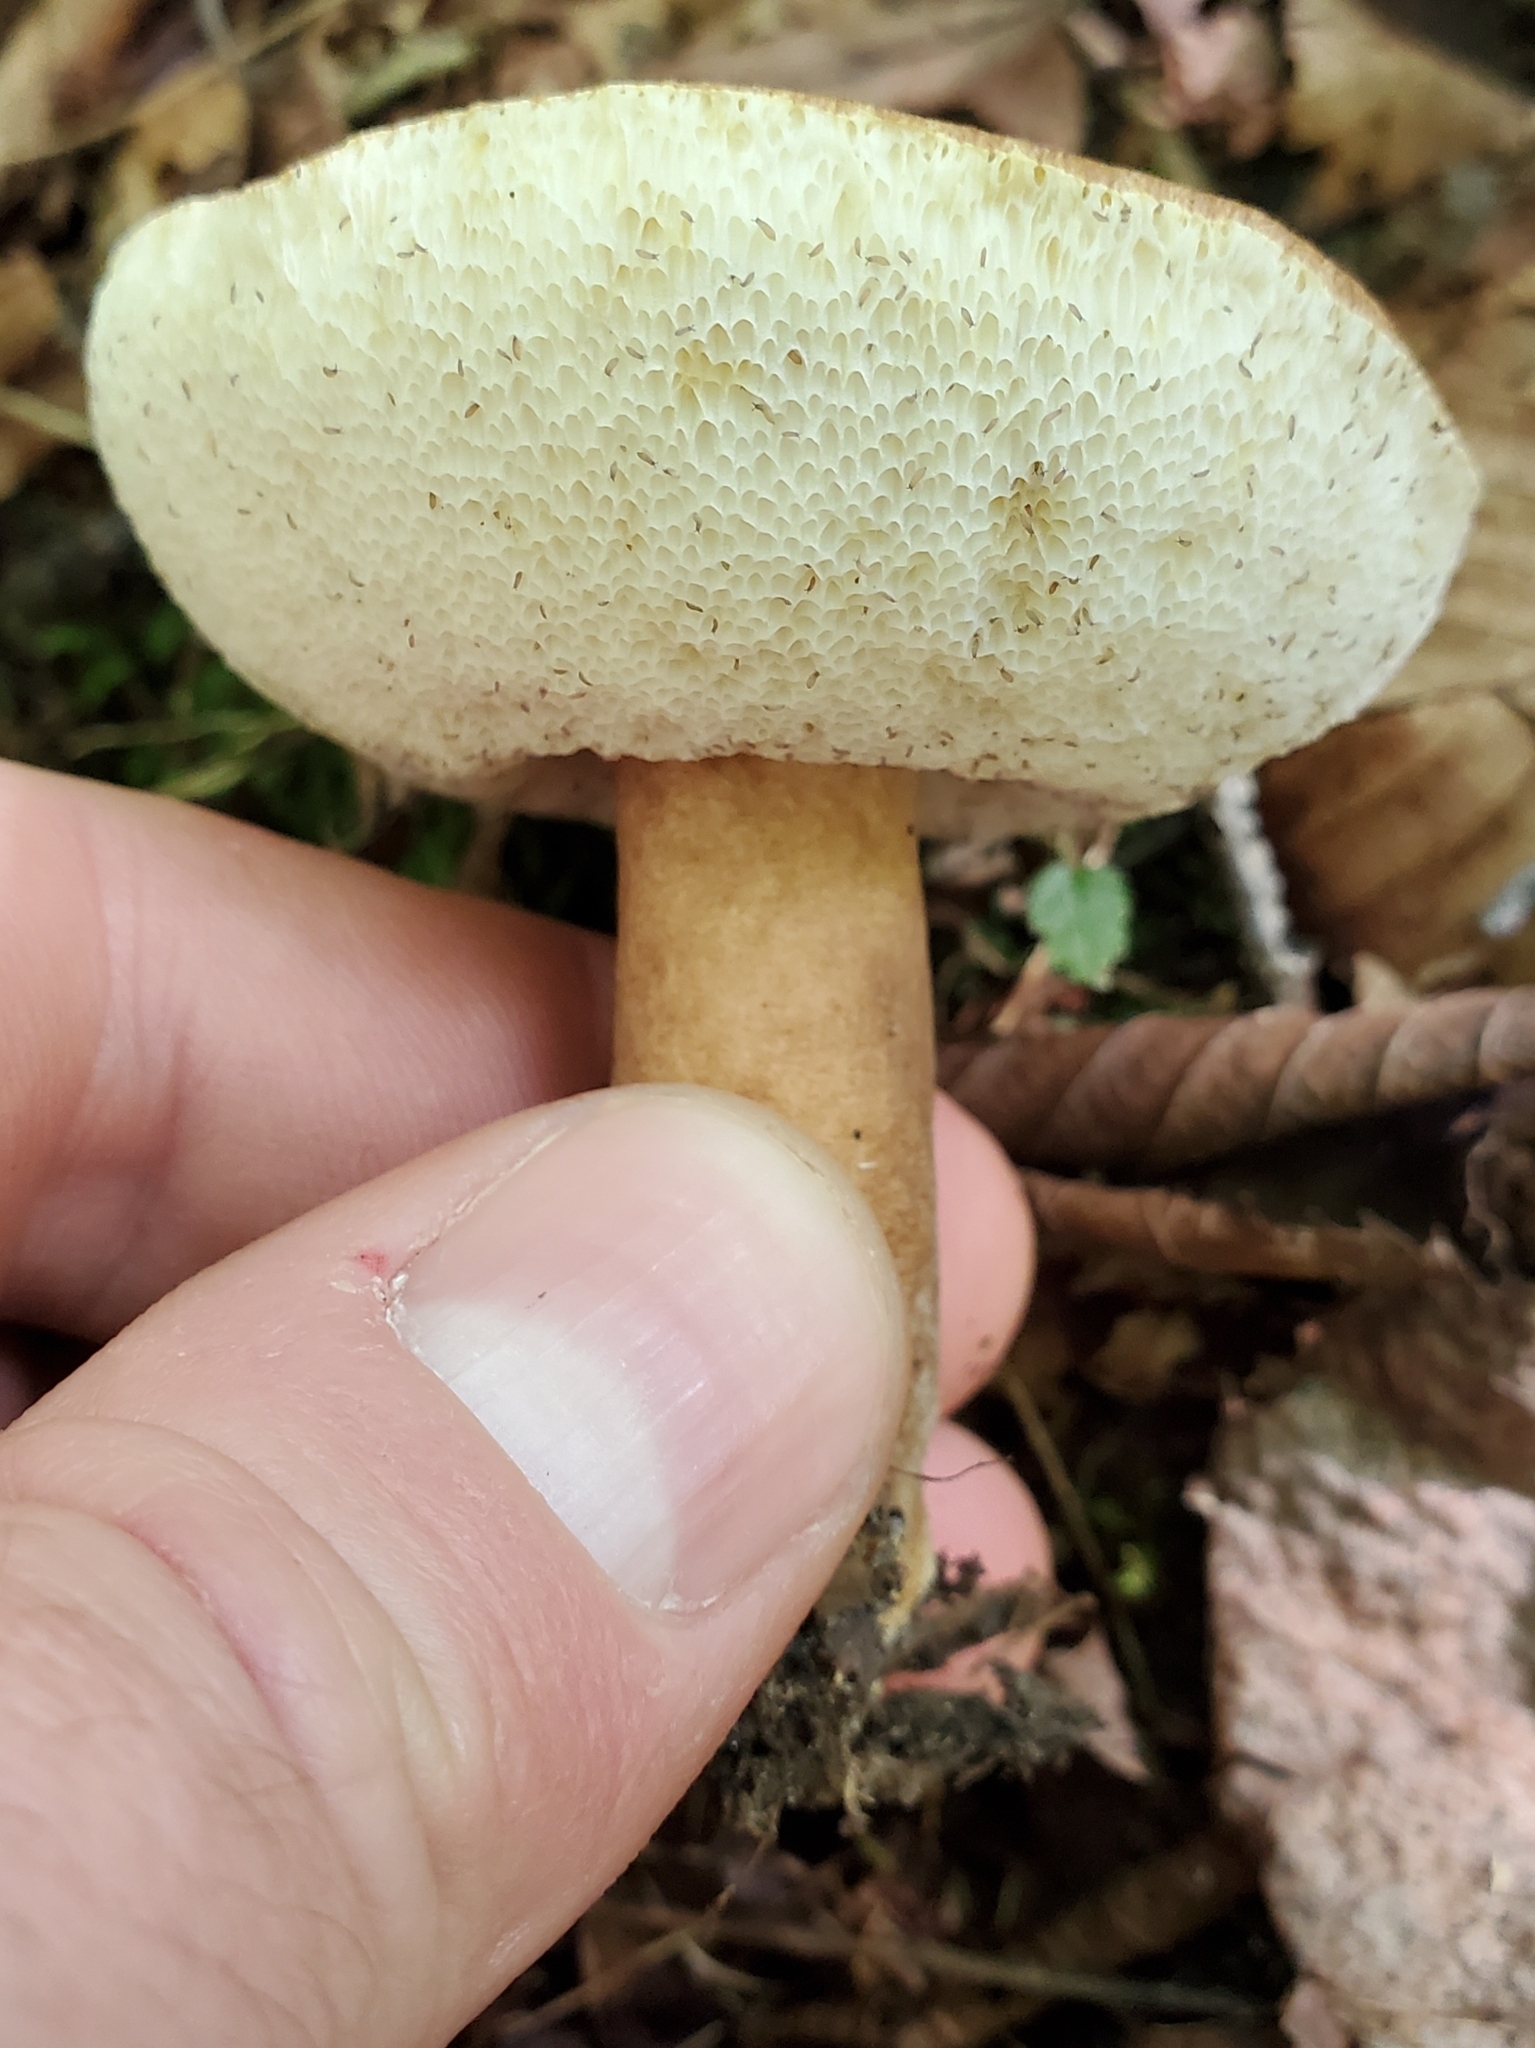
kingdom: Fungi
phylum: Basidiomycota
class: Agaricomycetes
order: Boletales
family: Gyroporaceae
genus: Gyroporus
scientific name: Gyroporus castaneus
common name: Chestnut bolete
